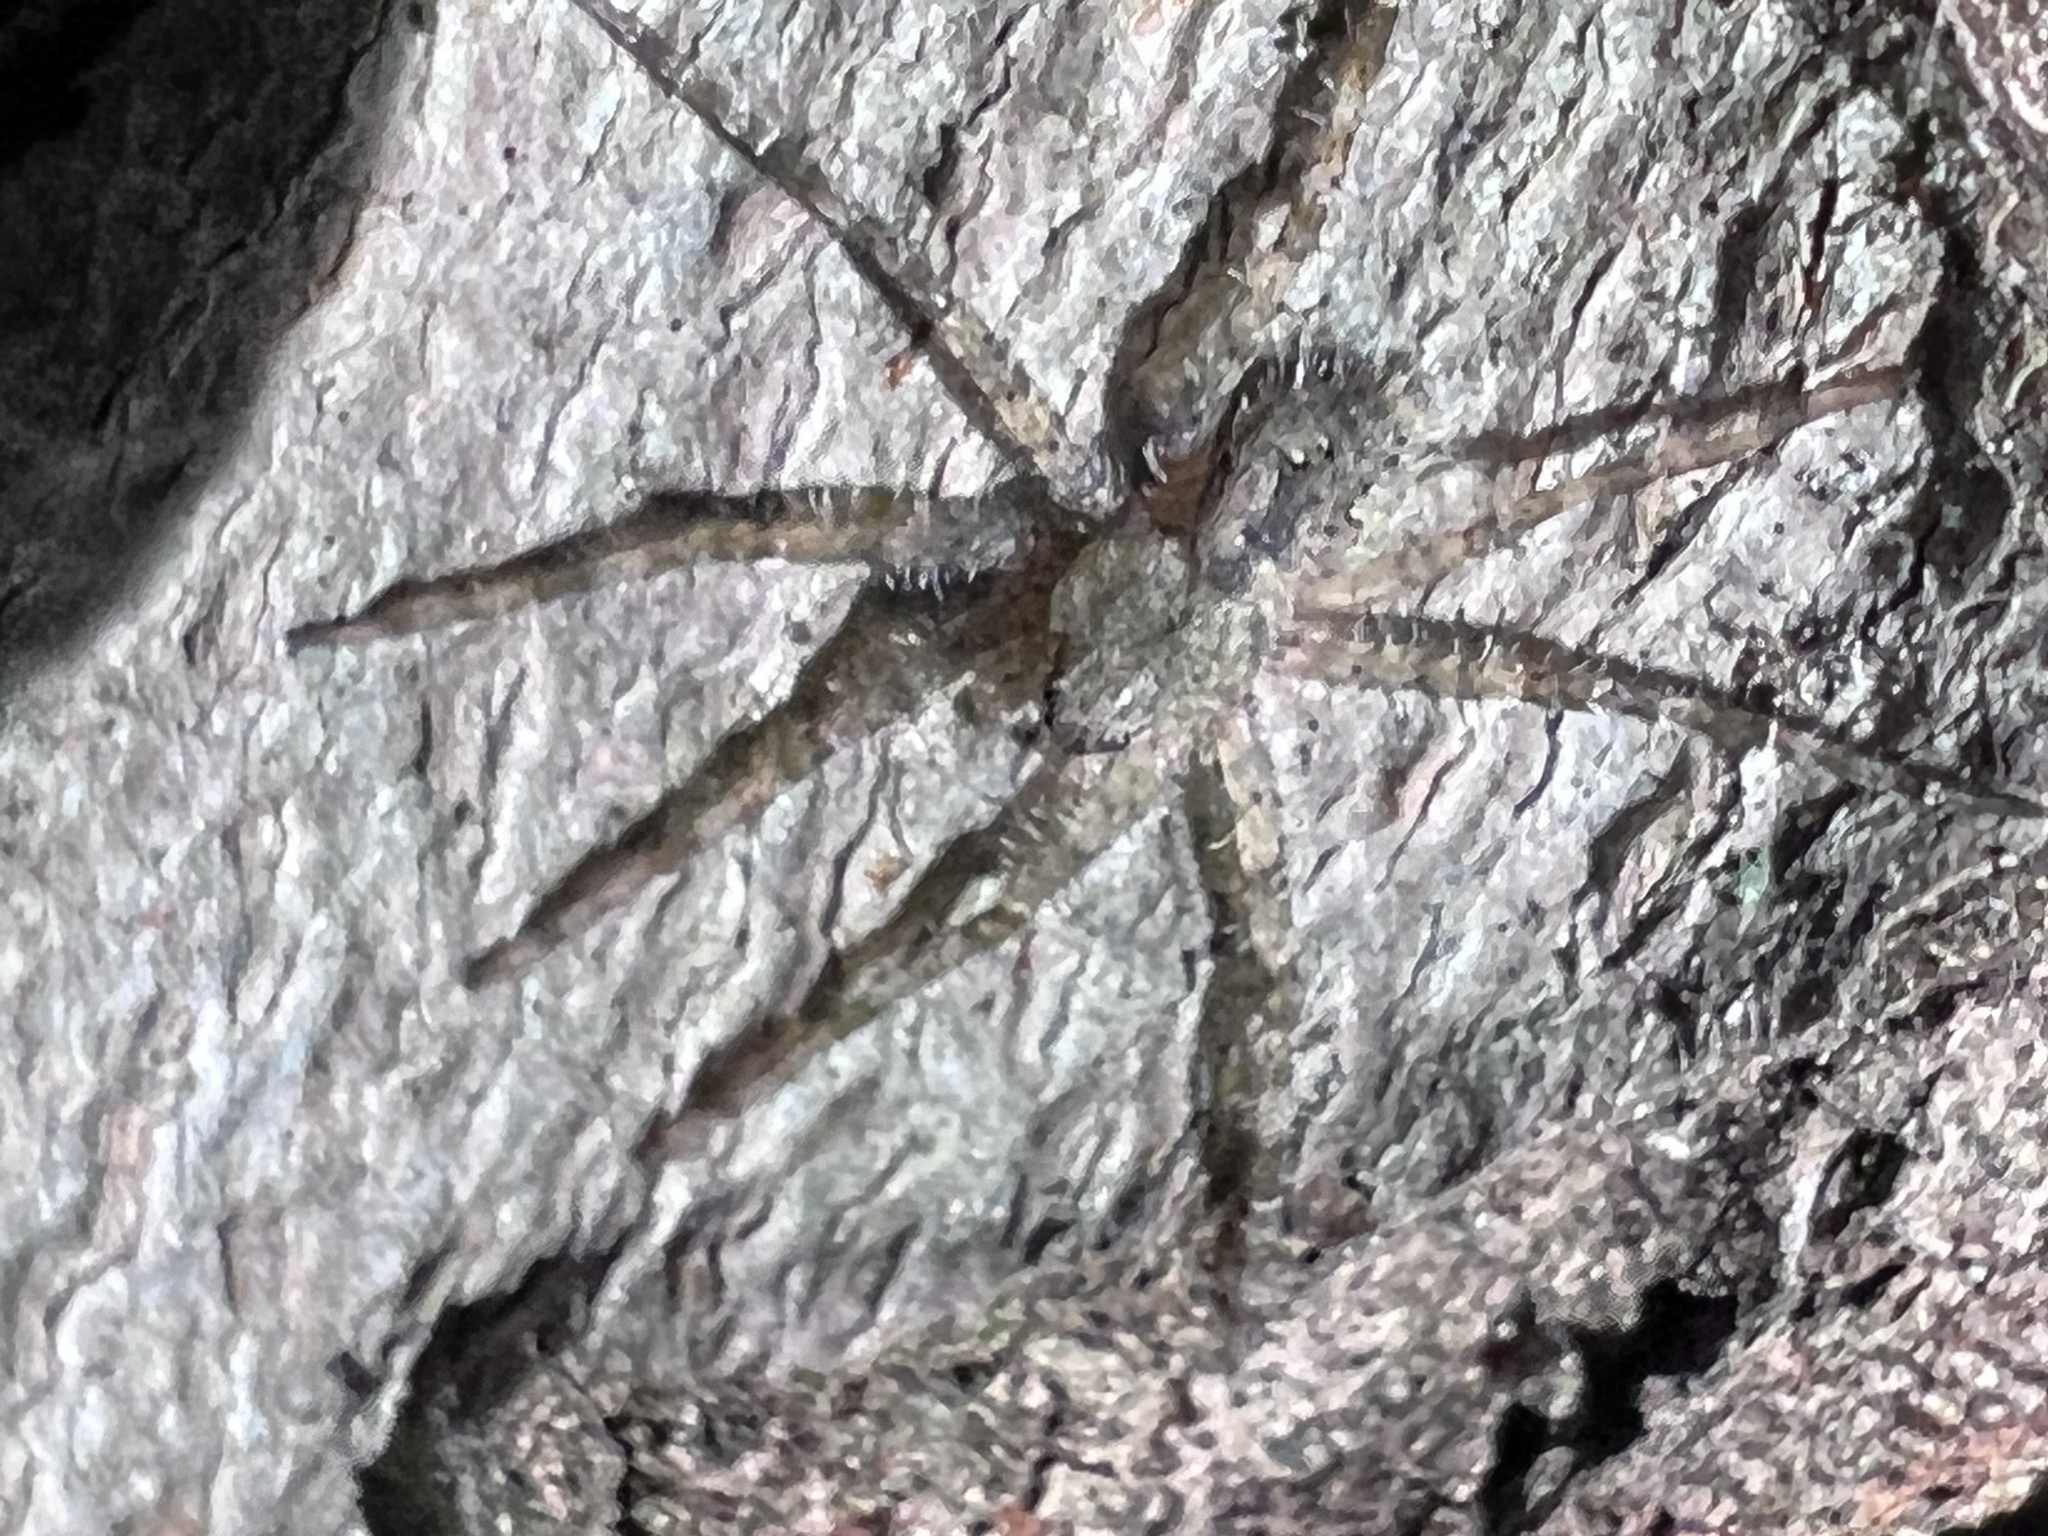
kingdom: Animalia
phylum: Arthropoda
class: Arachnida
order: Araneae
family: Pisauridae
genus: Dolomedes
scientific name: Dolomedes albineus
